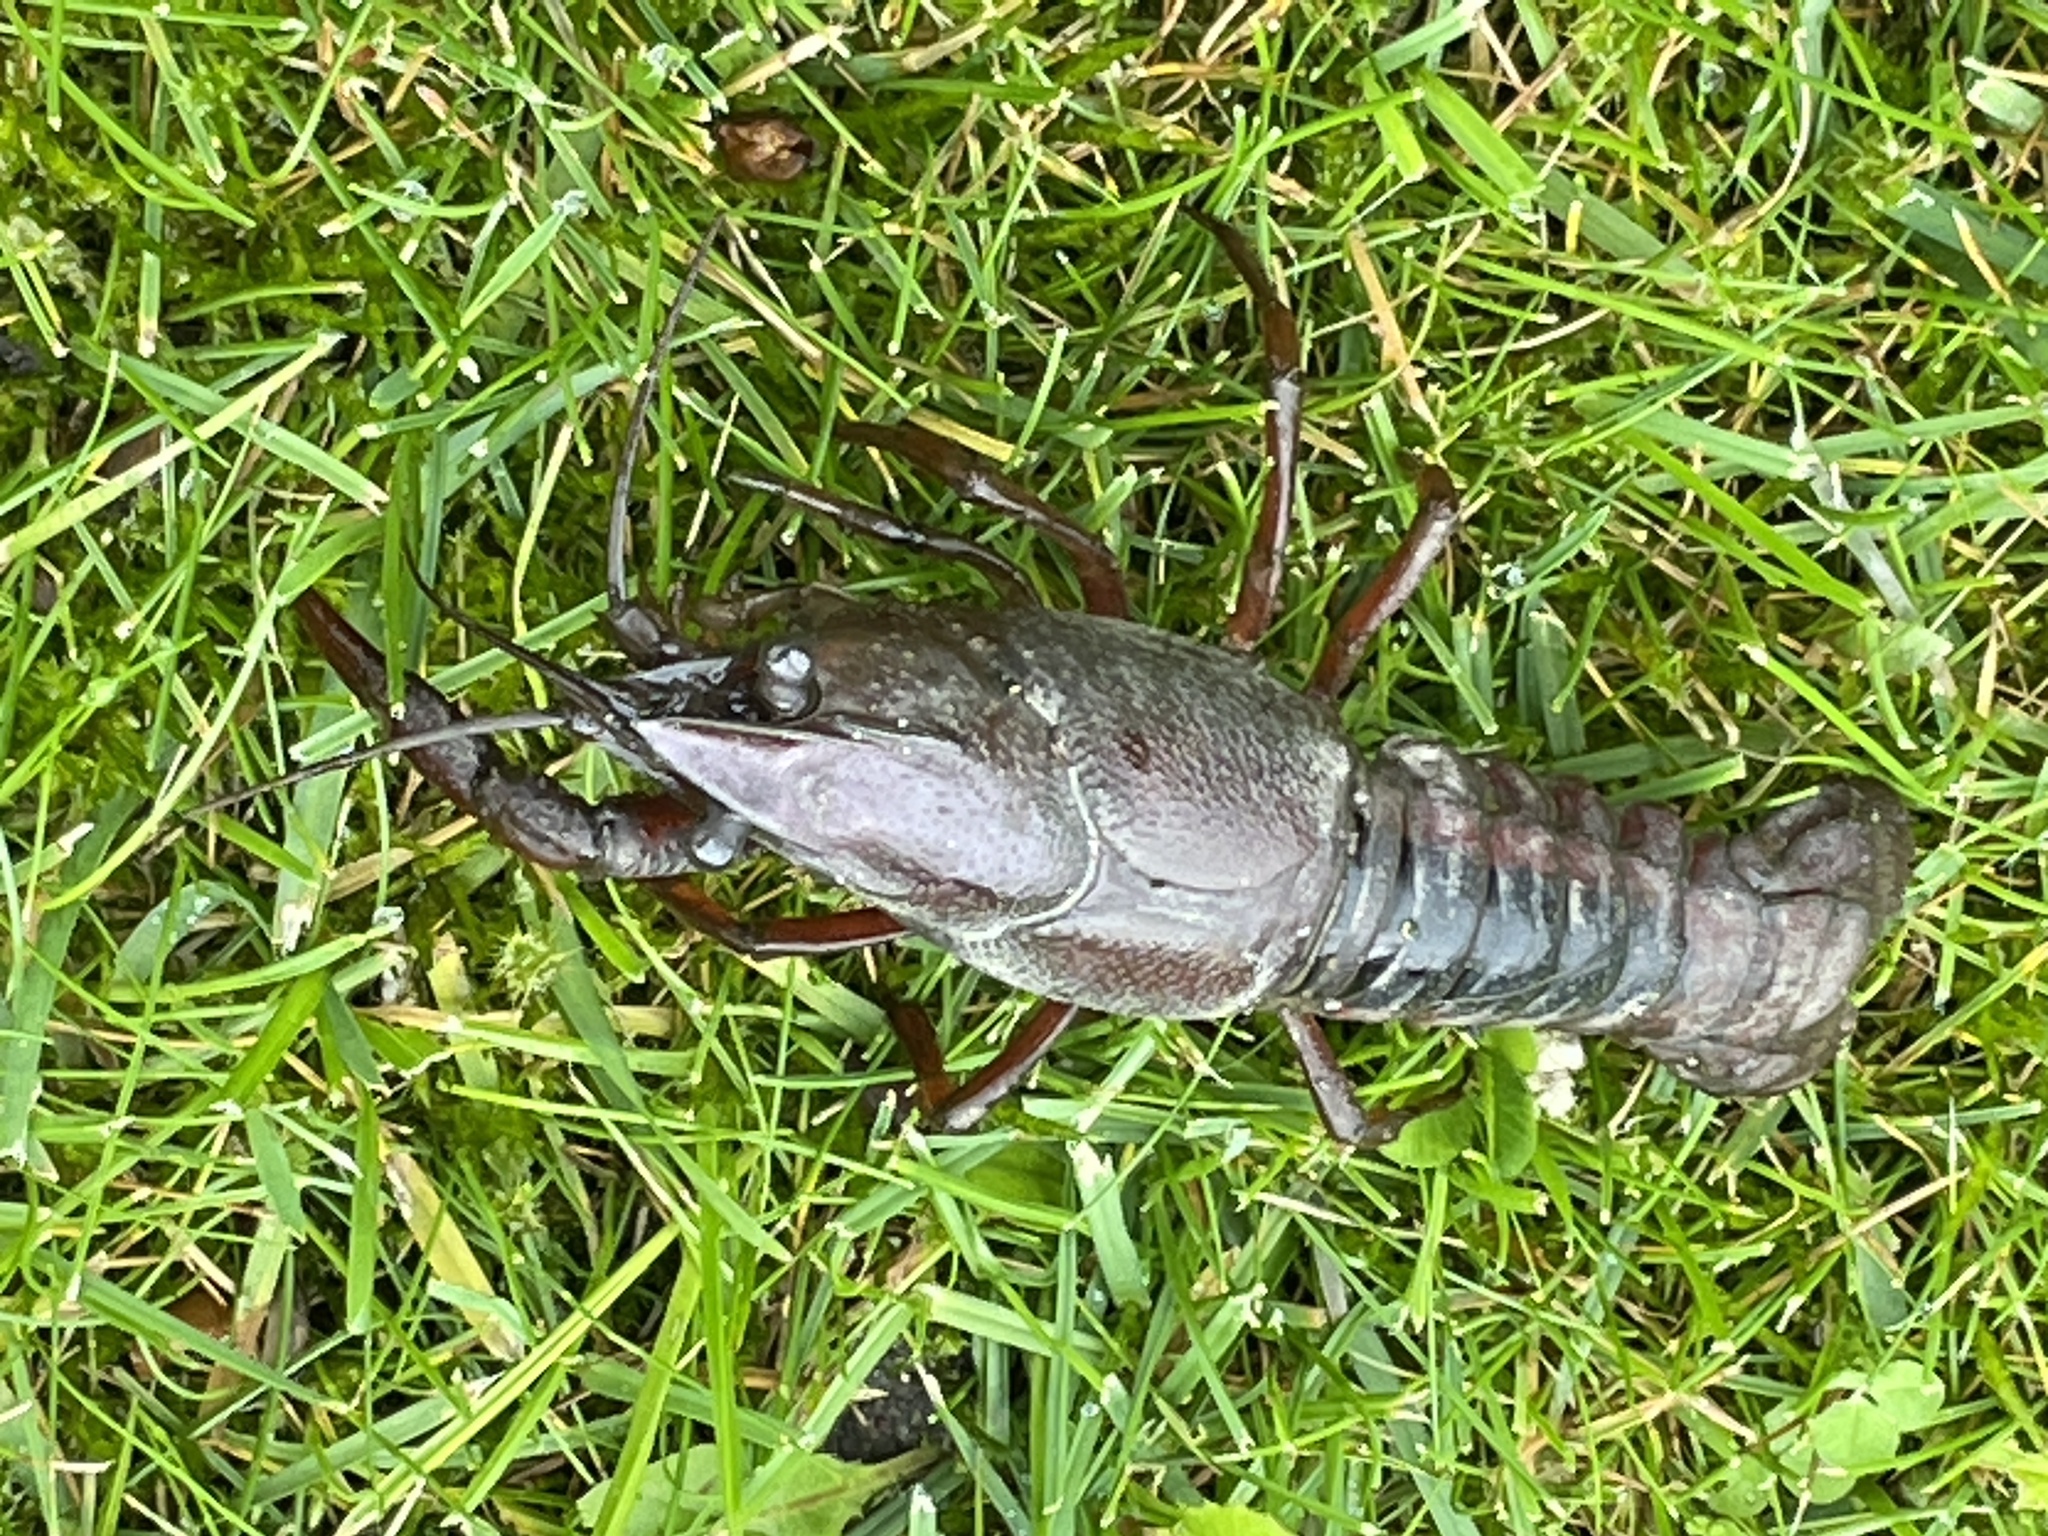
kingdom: Animalia
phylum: Arthropoda
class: Malacostraca
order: Decapoda
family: Cambaridae
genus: Procambarus
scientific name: Procambarus acutus
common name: White river crayfish
